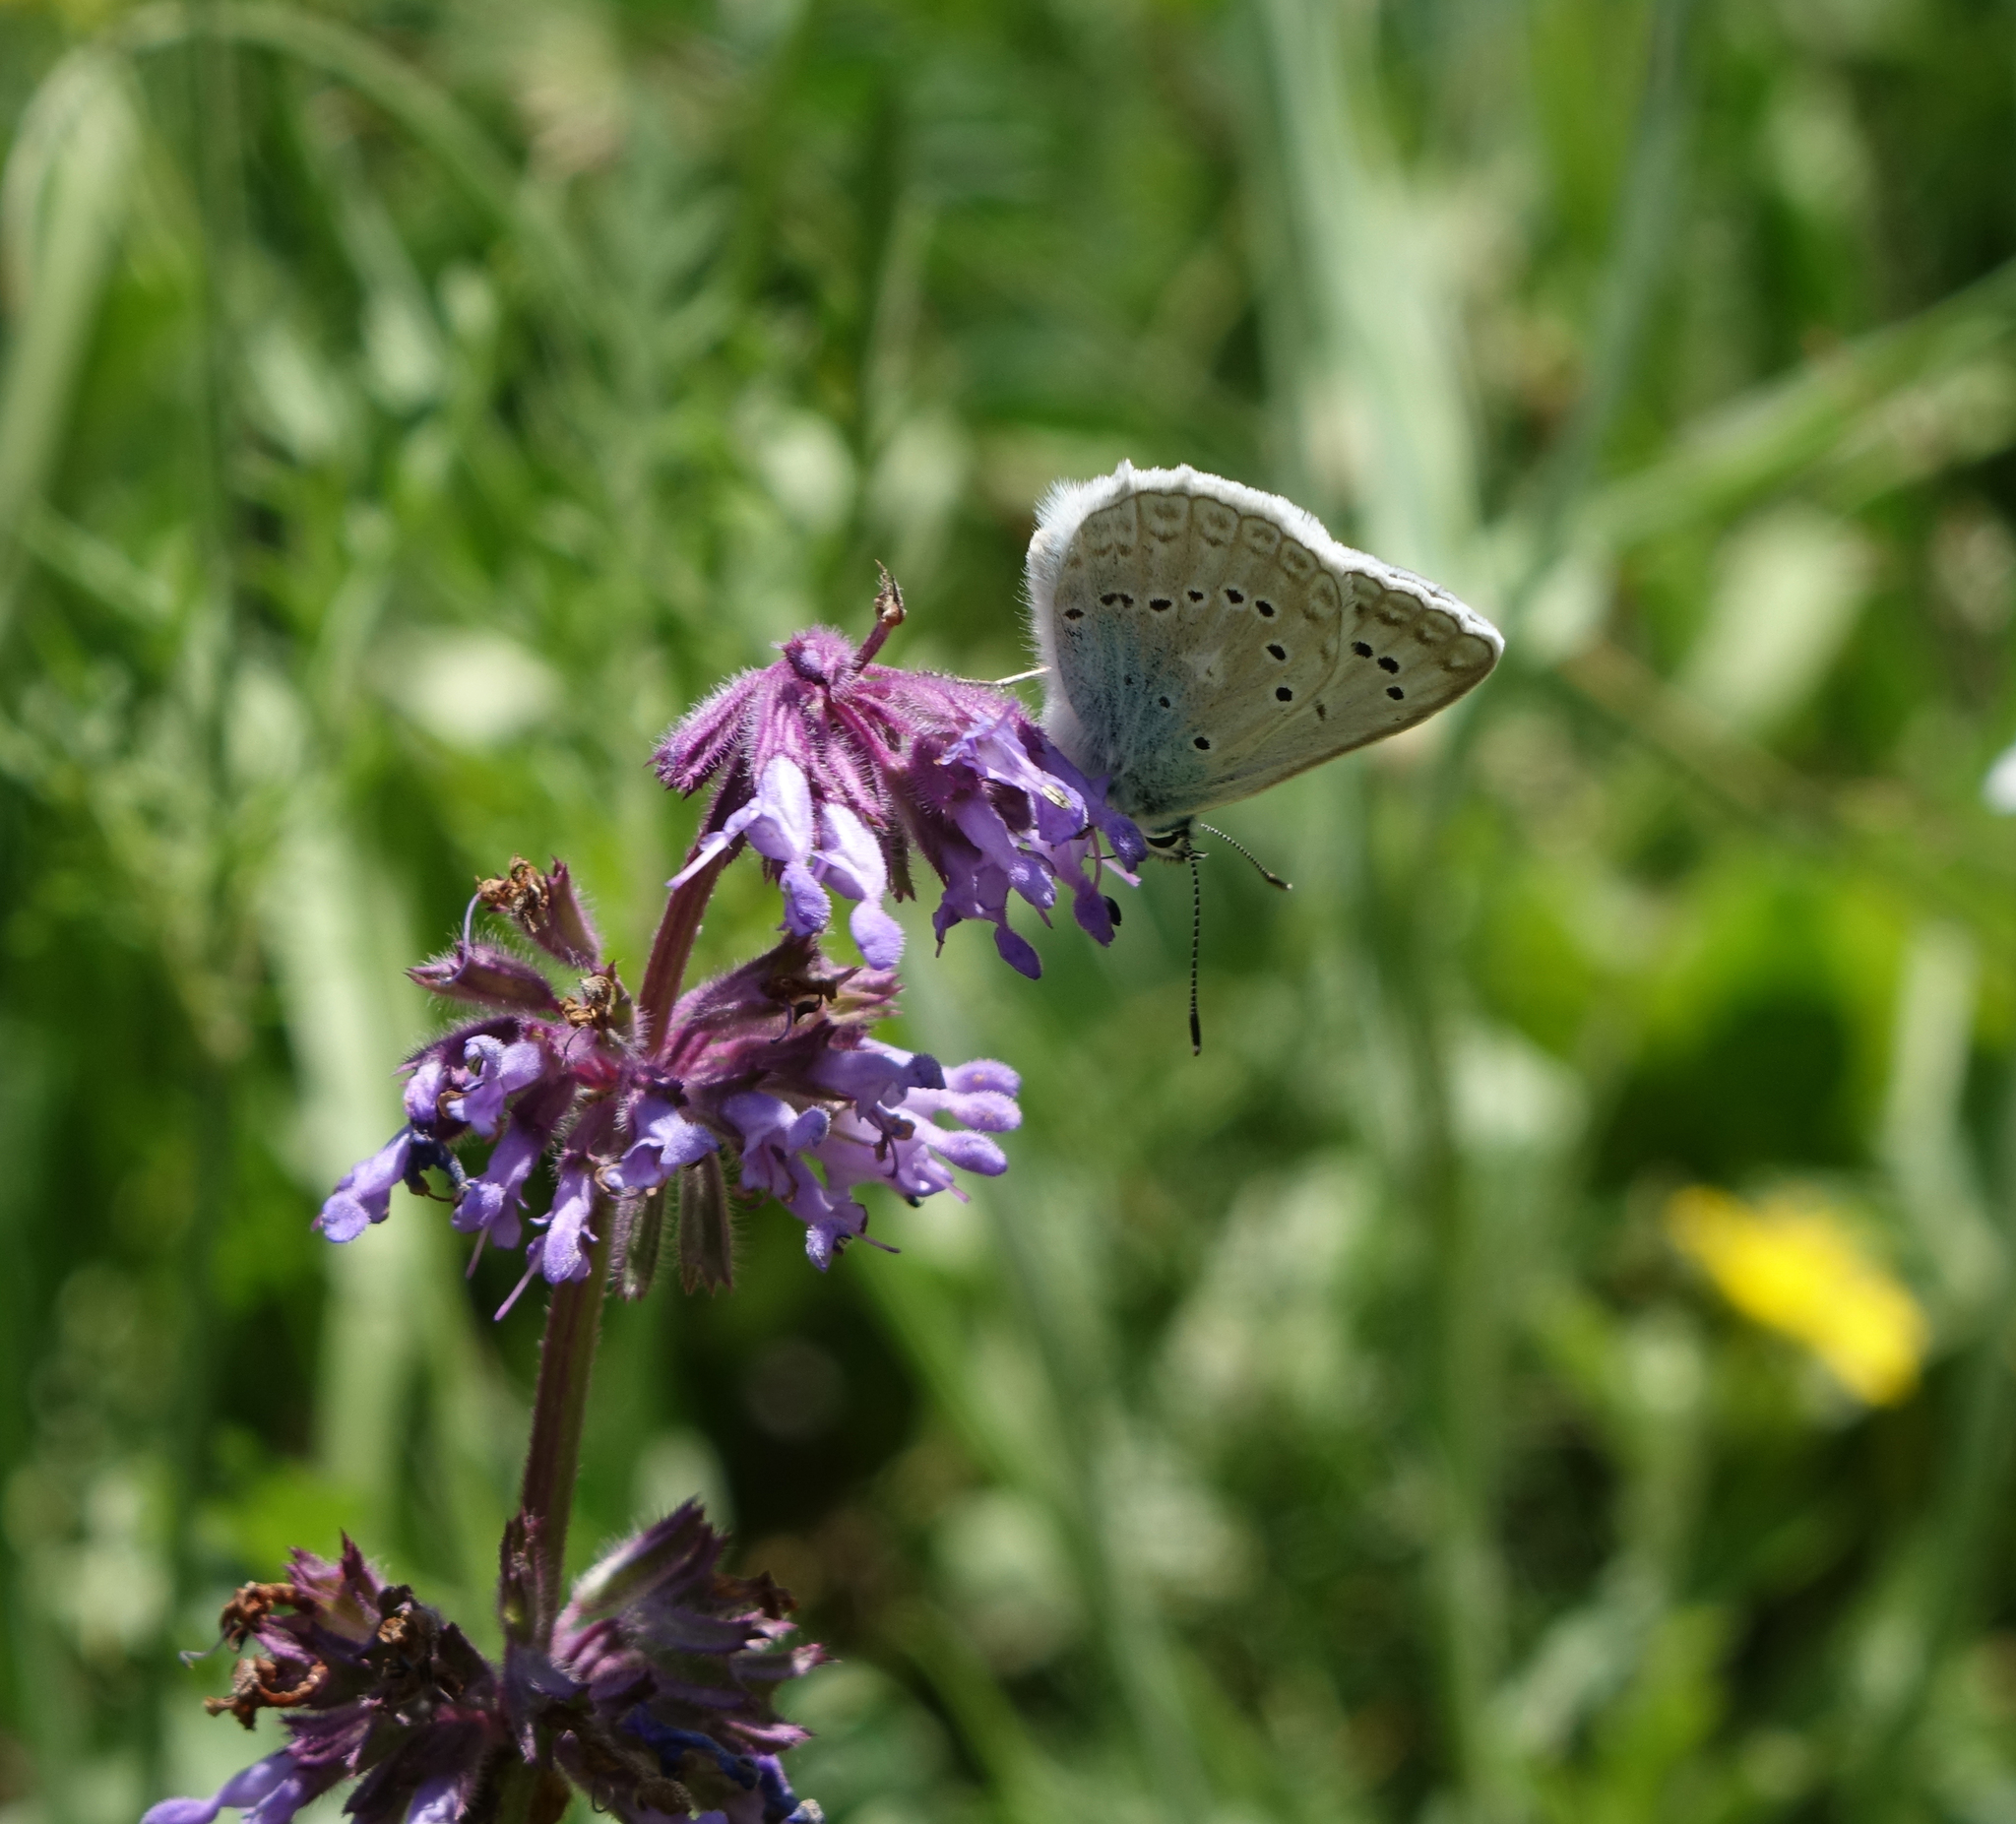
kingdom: Plantae
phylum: Tracheophyta
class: Magnoliopsida
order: Lamiales
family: Lamiaceae
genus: Salvia
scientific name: Salvia verticillata
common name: Whorled clary
